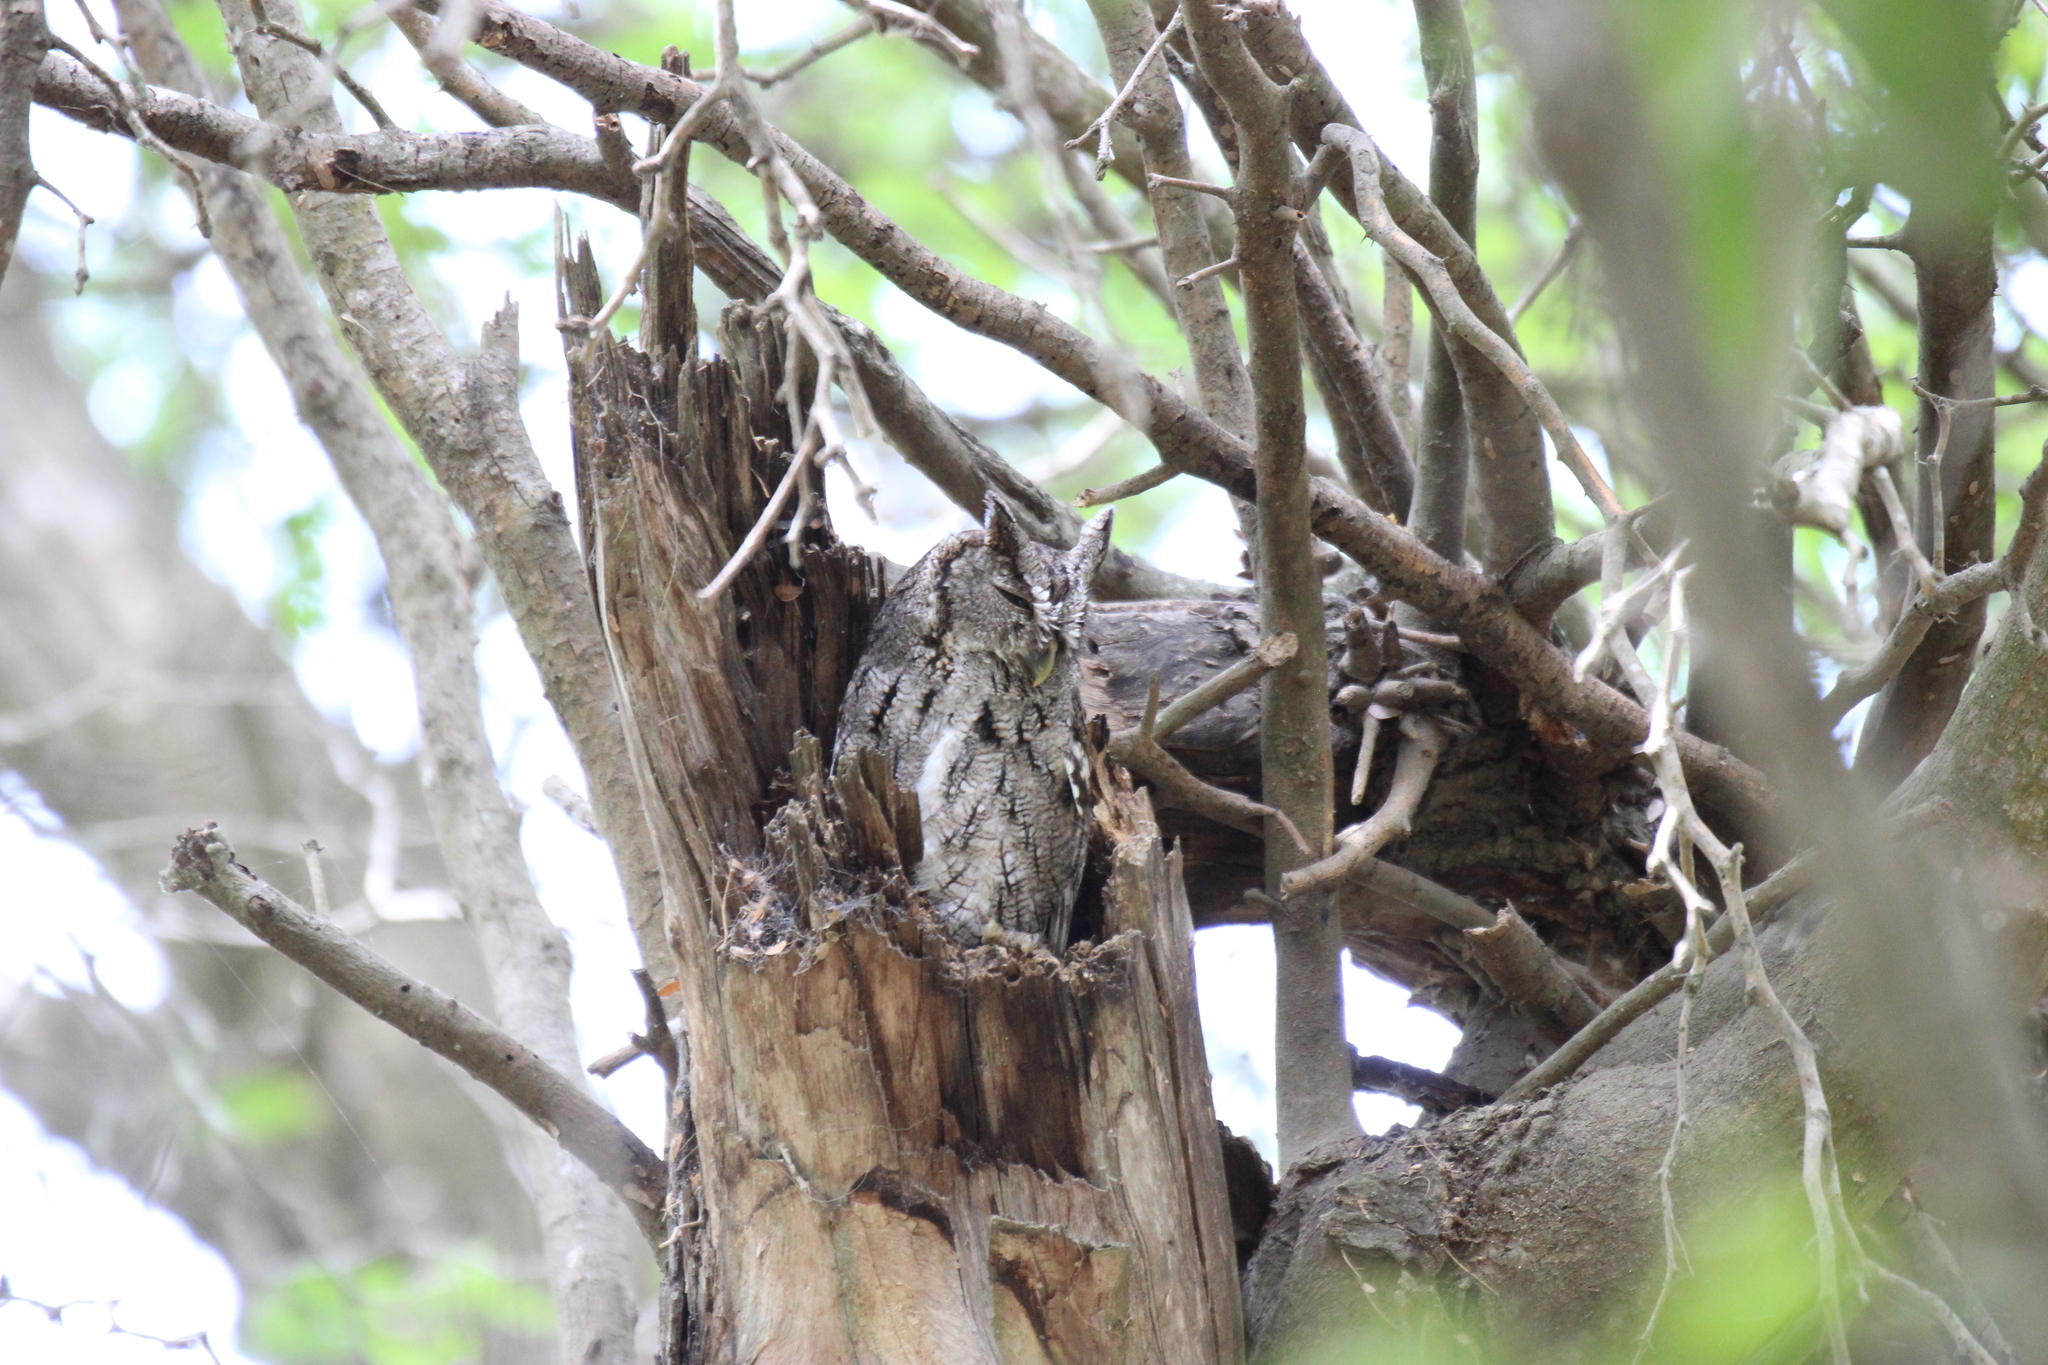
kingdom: Animalia
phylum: Chordata
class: Aves
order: Strigiformes
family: Strigidae
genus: Megascops
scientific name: Megascops asio
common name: Eastern screech-owl
